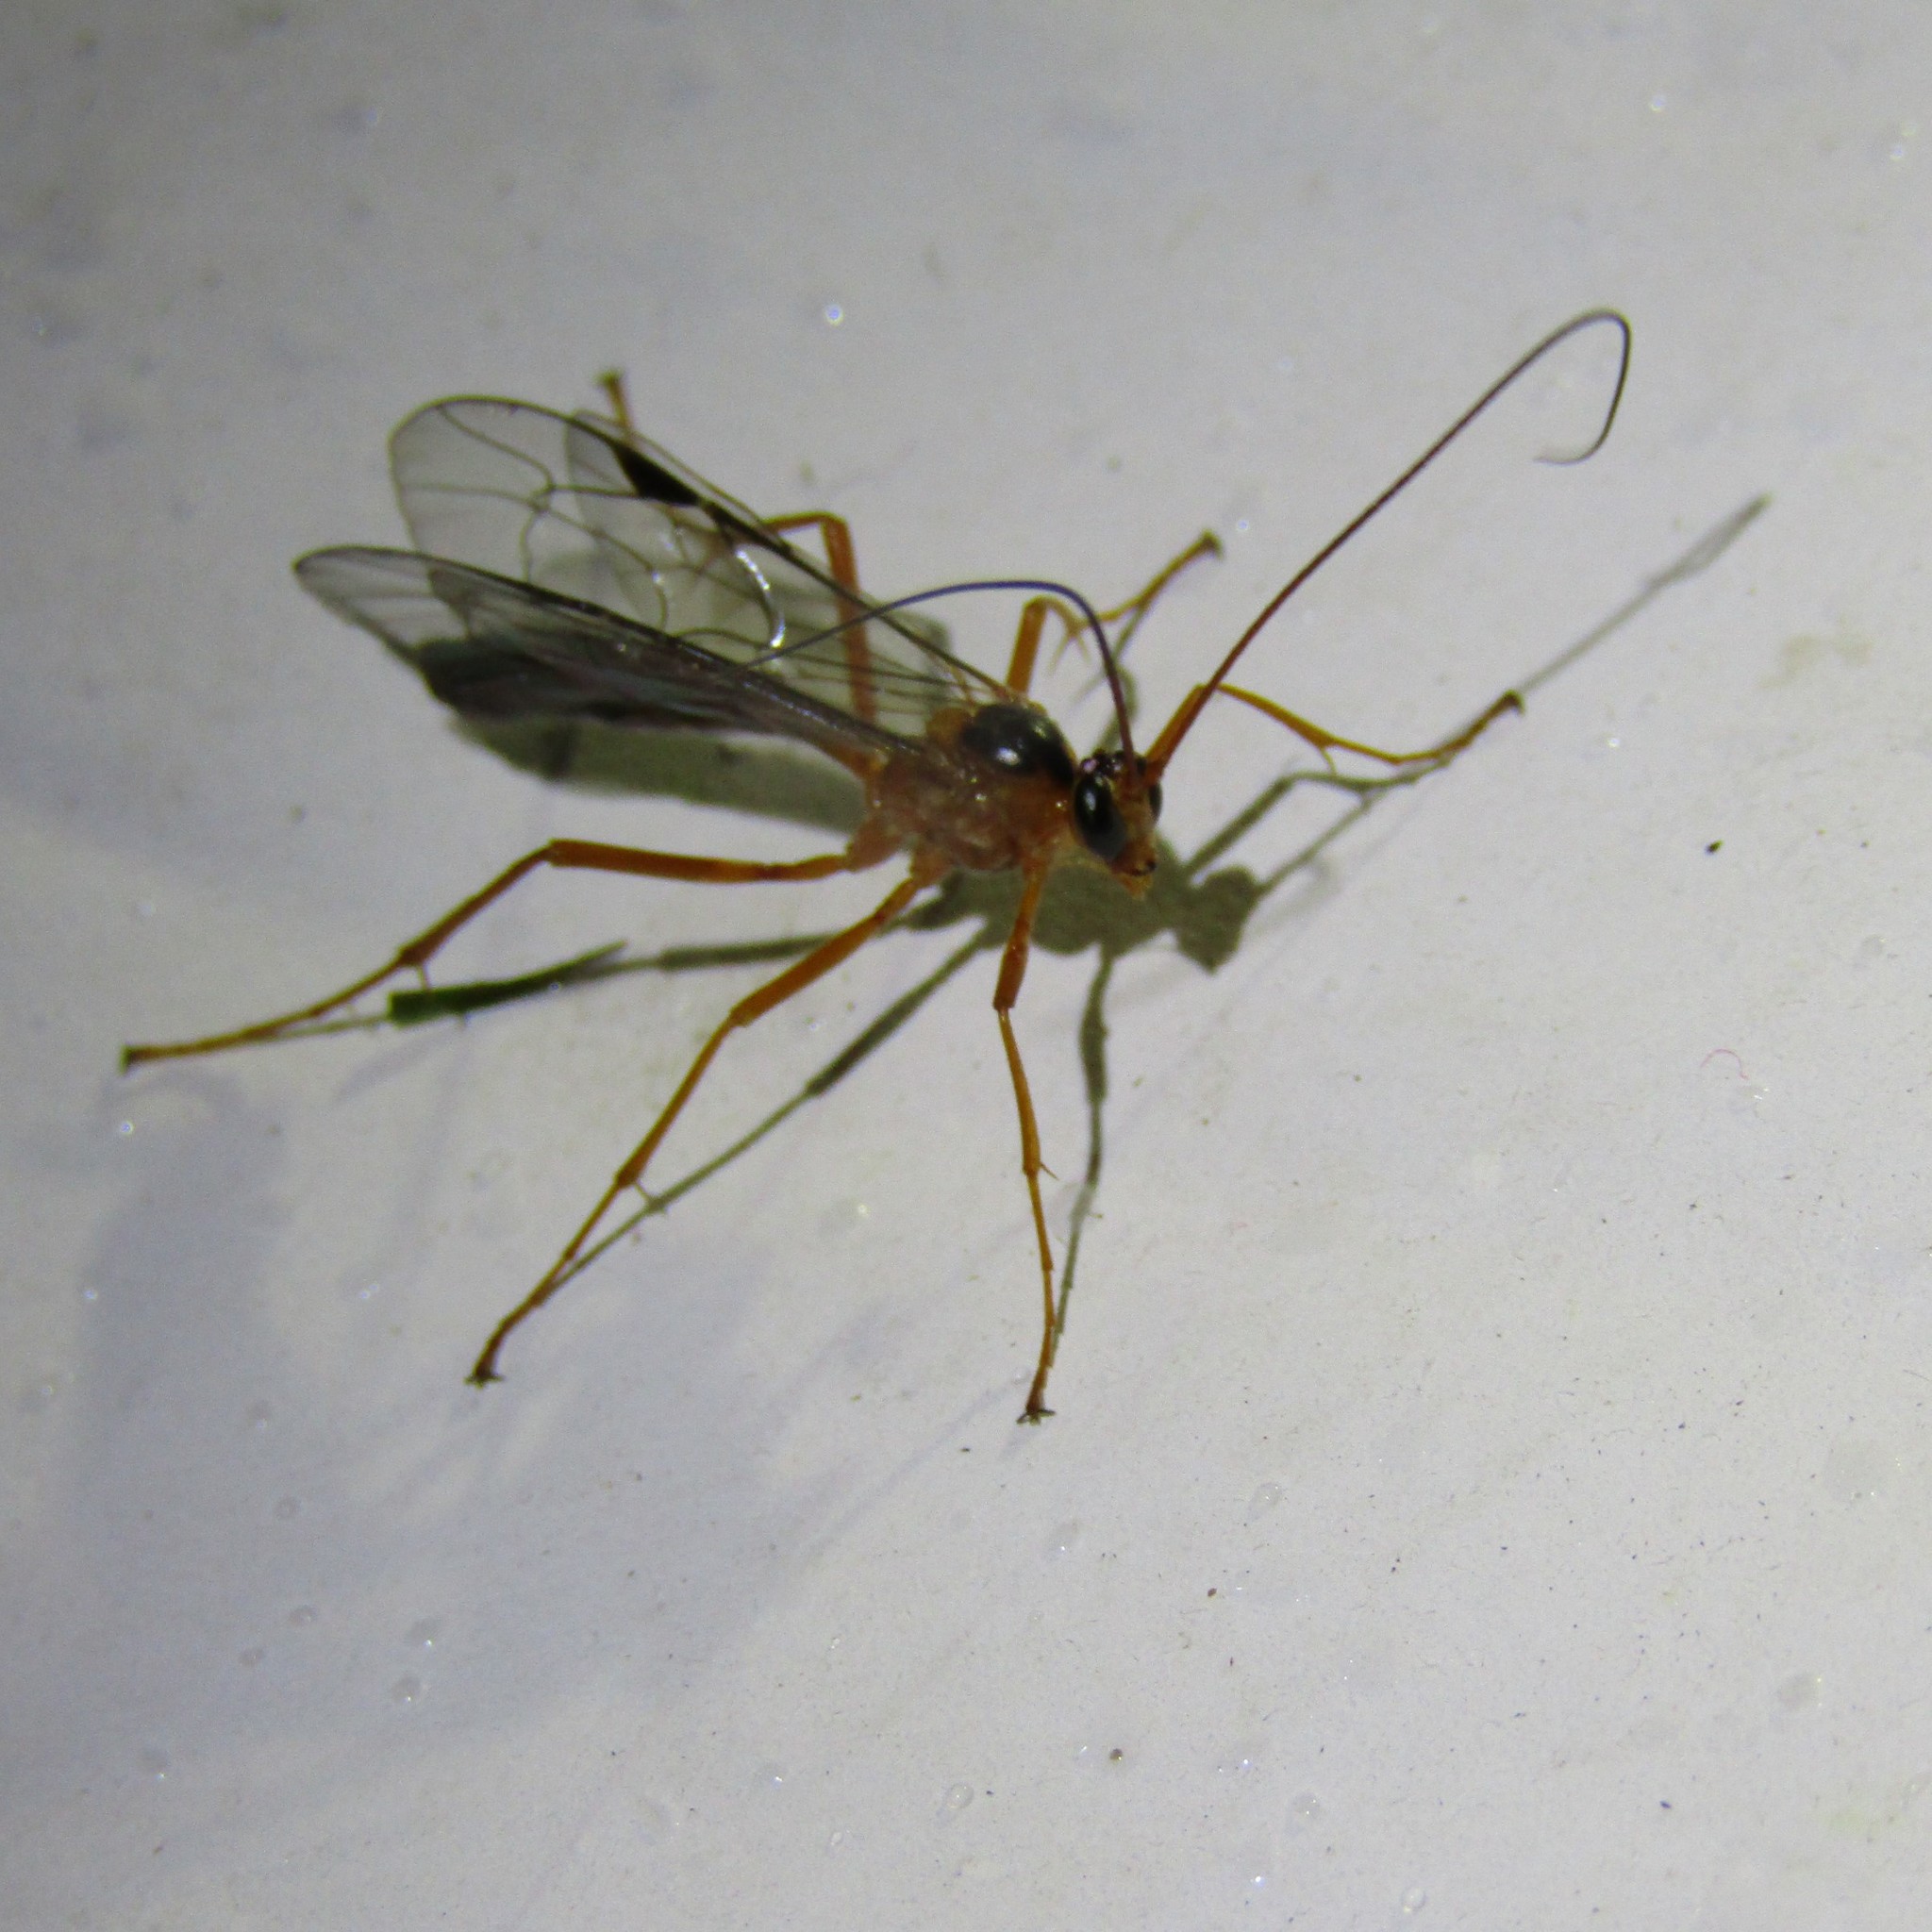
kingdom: Animalia
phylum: Arthropoda
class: Insecta
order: Hymenoptera
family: Ichneumonidae
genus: Netelia
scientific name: Netelia ephippiata
